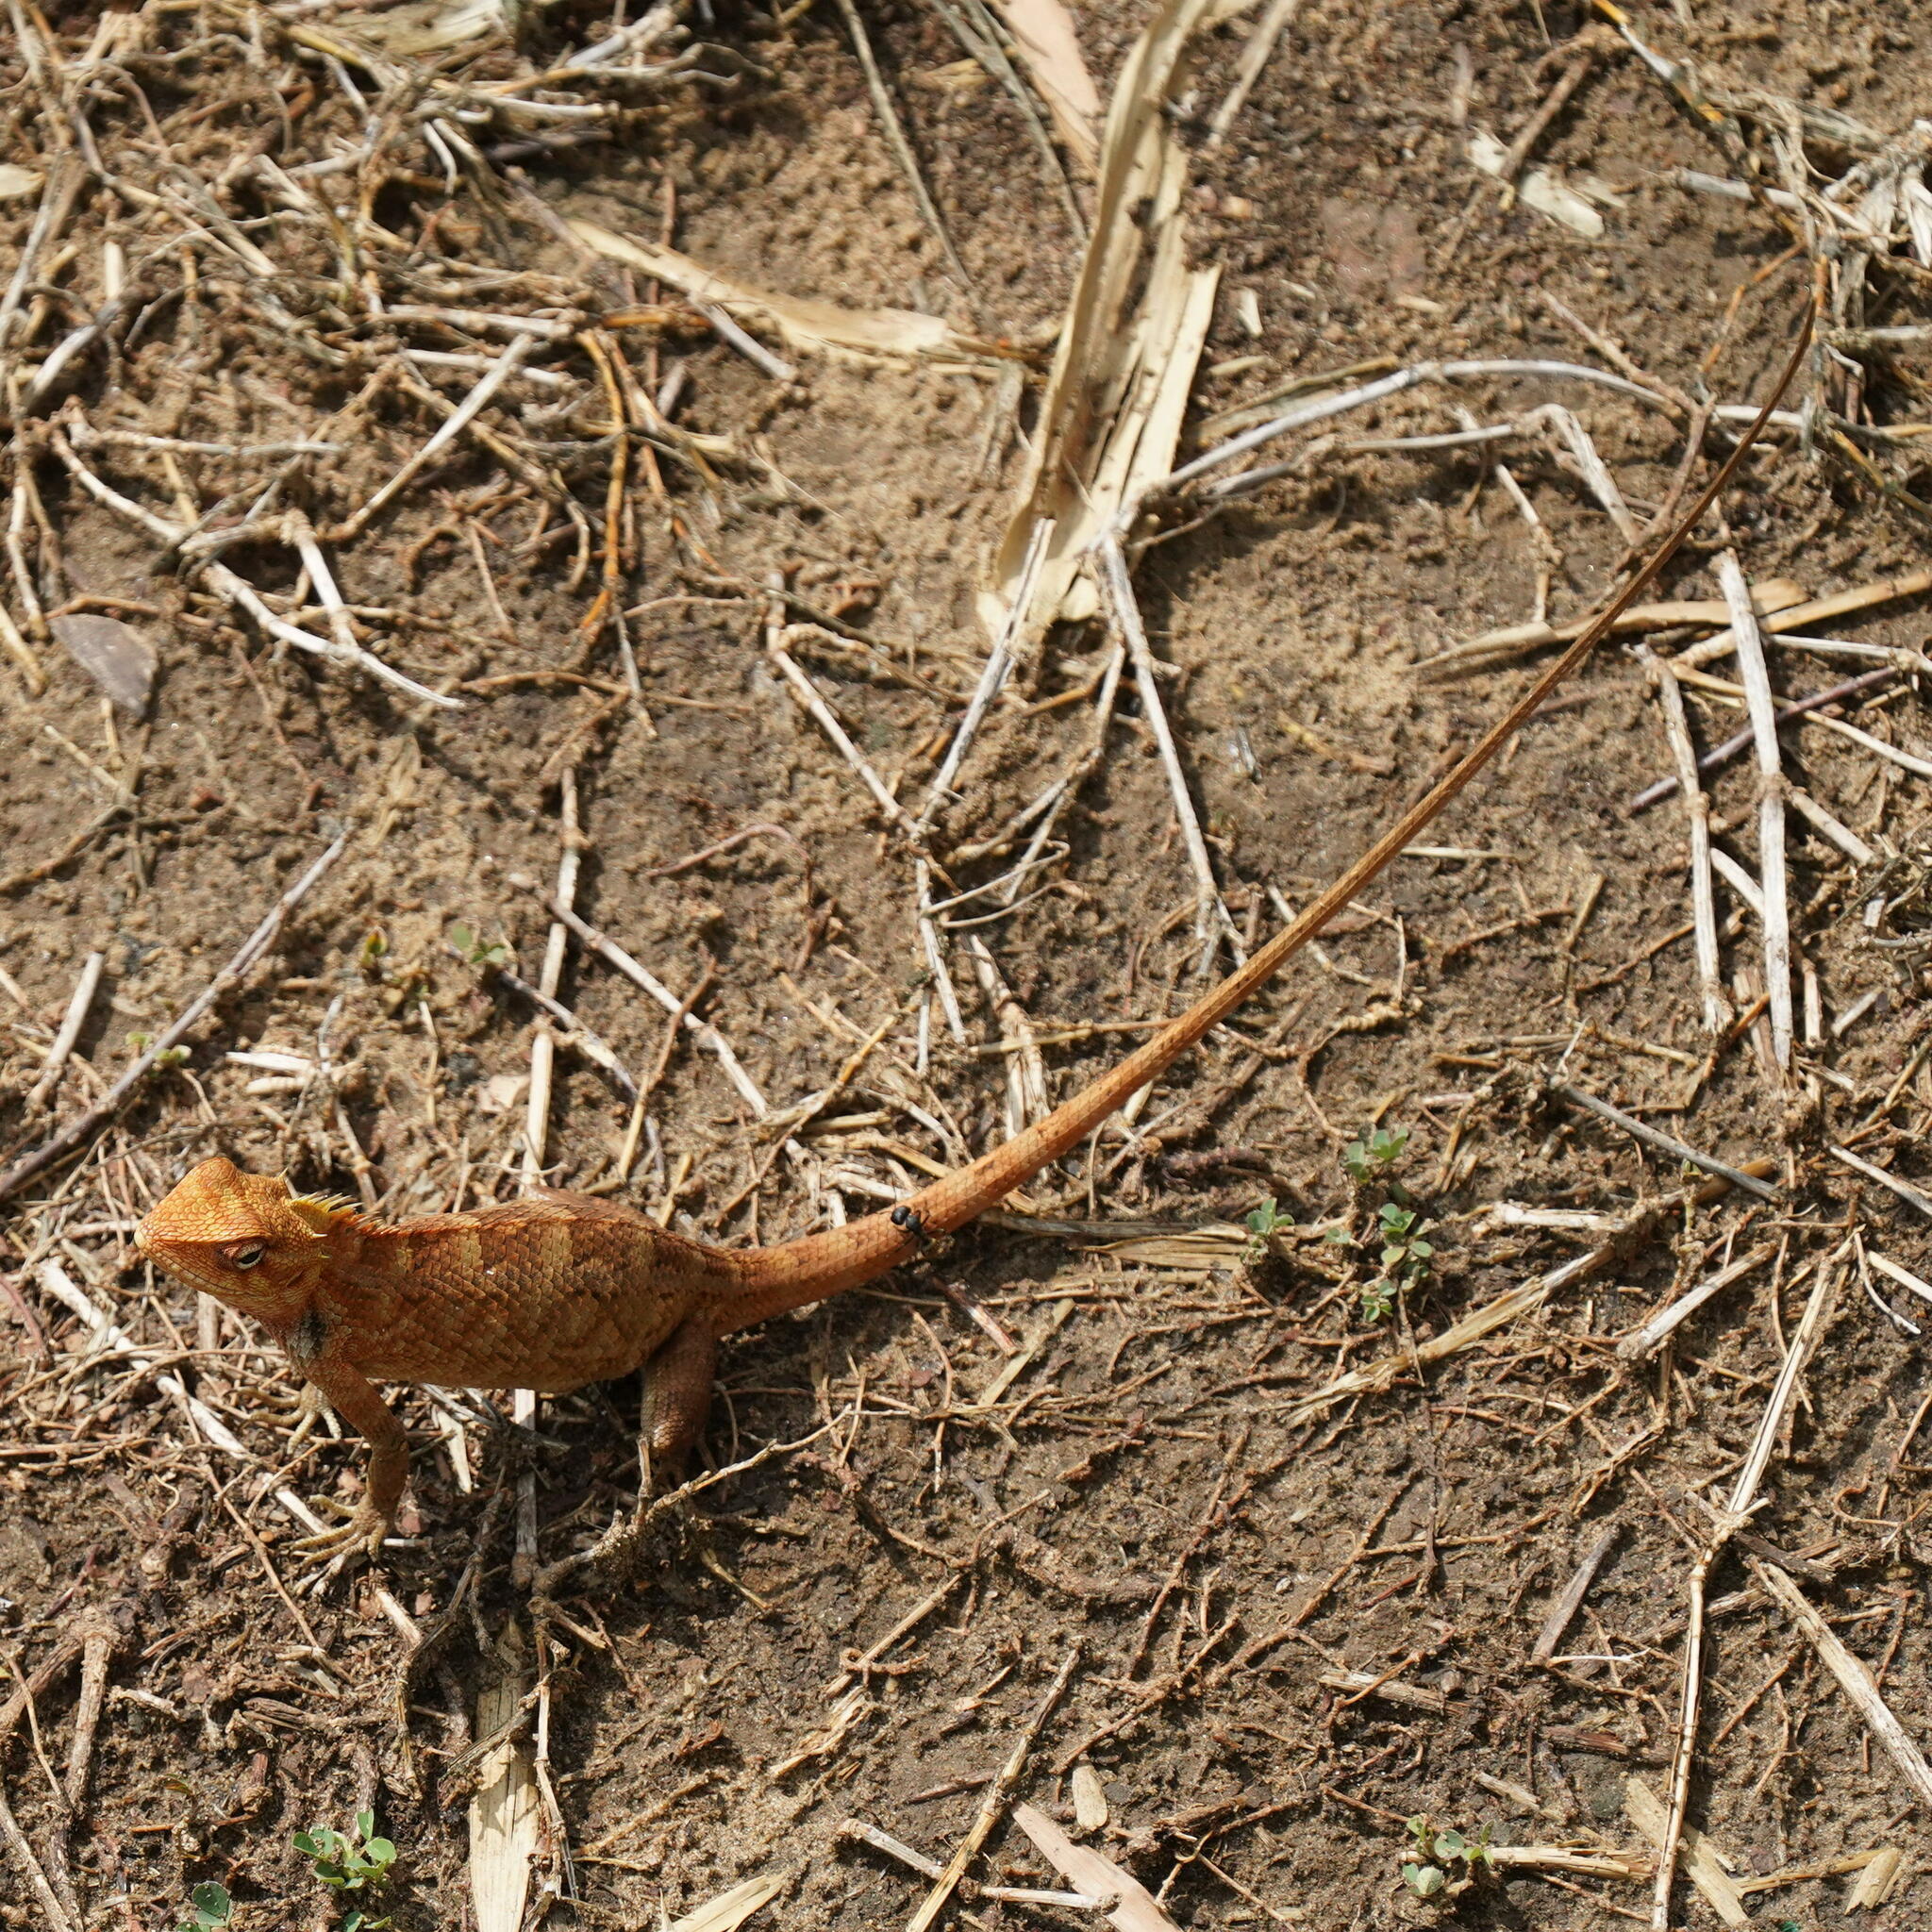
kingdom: Animalia
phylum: Chordata
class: Squamata
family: Agamidae
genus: Calotes
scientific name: Calotes versicolor
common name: Oriental garden lizard
